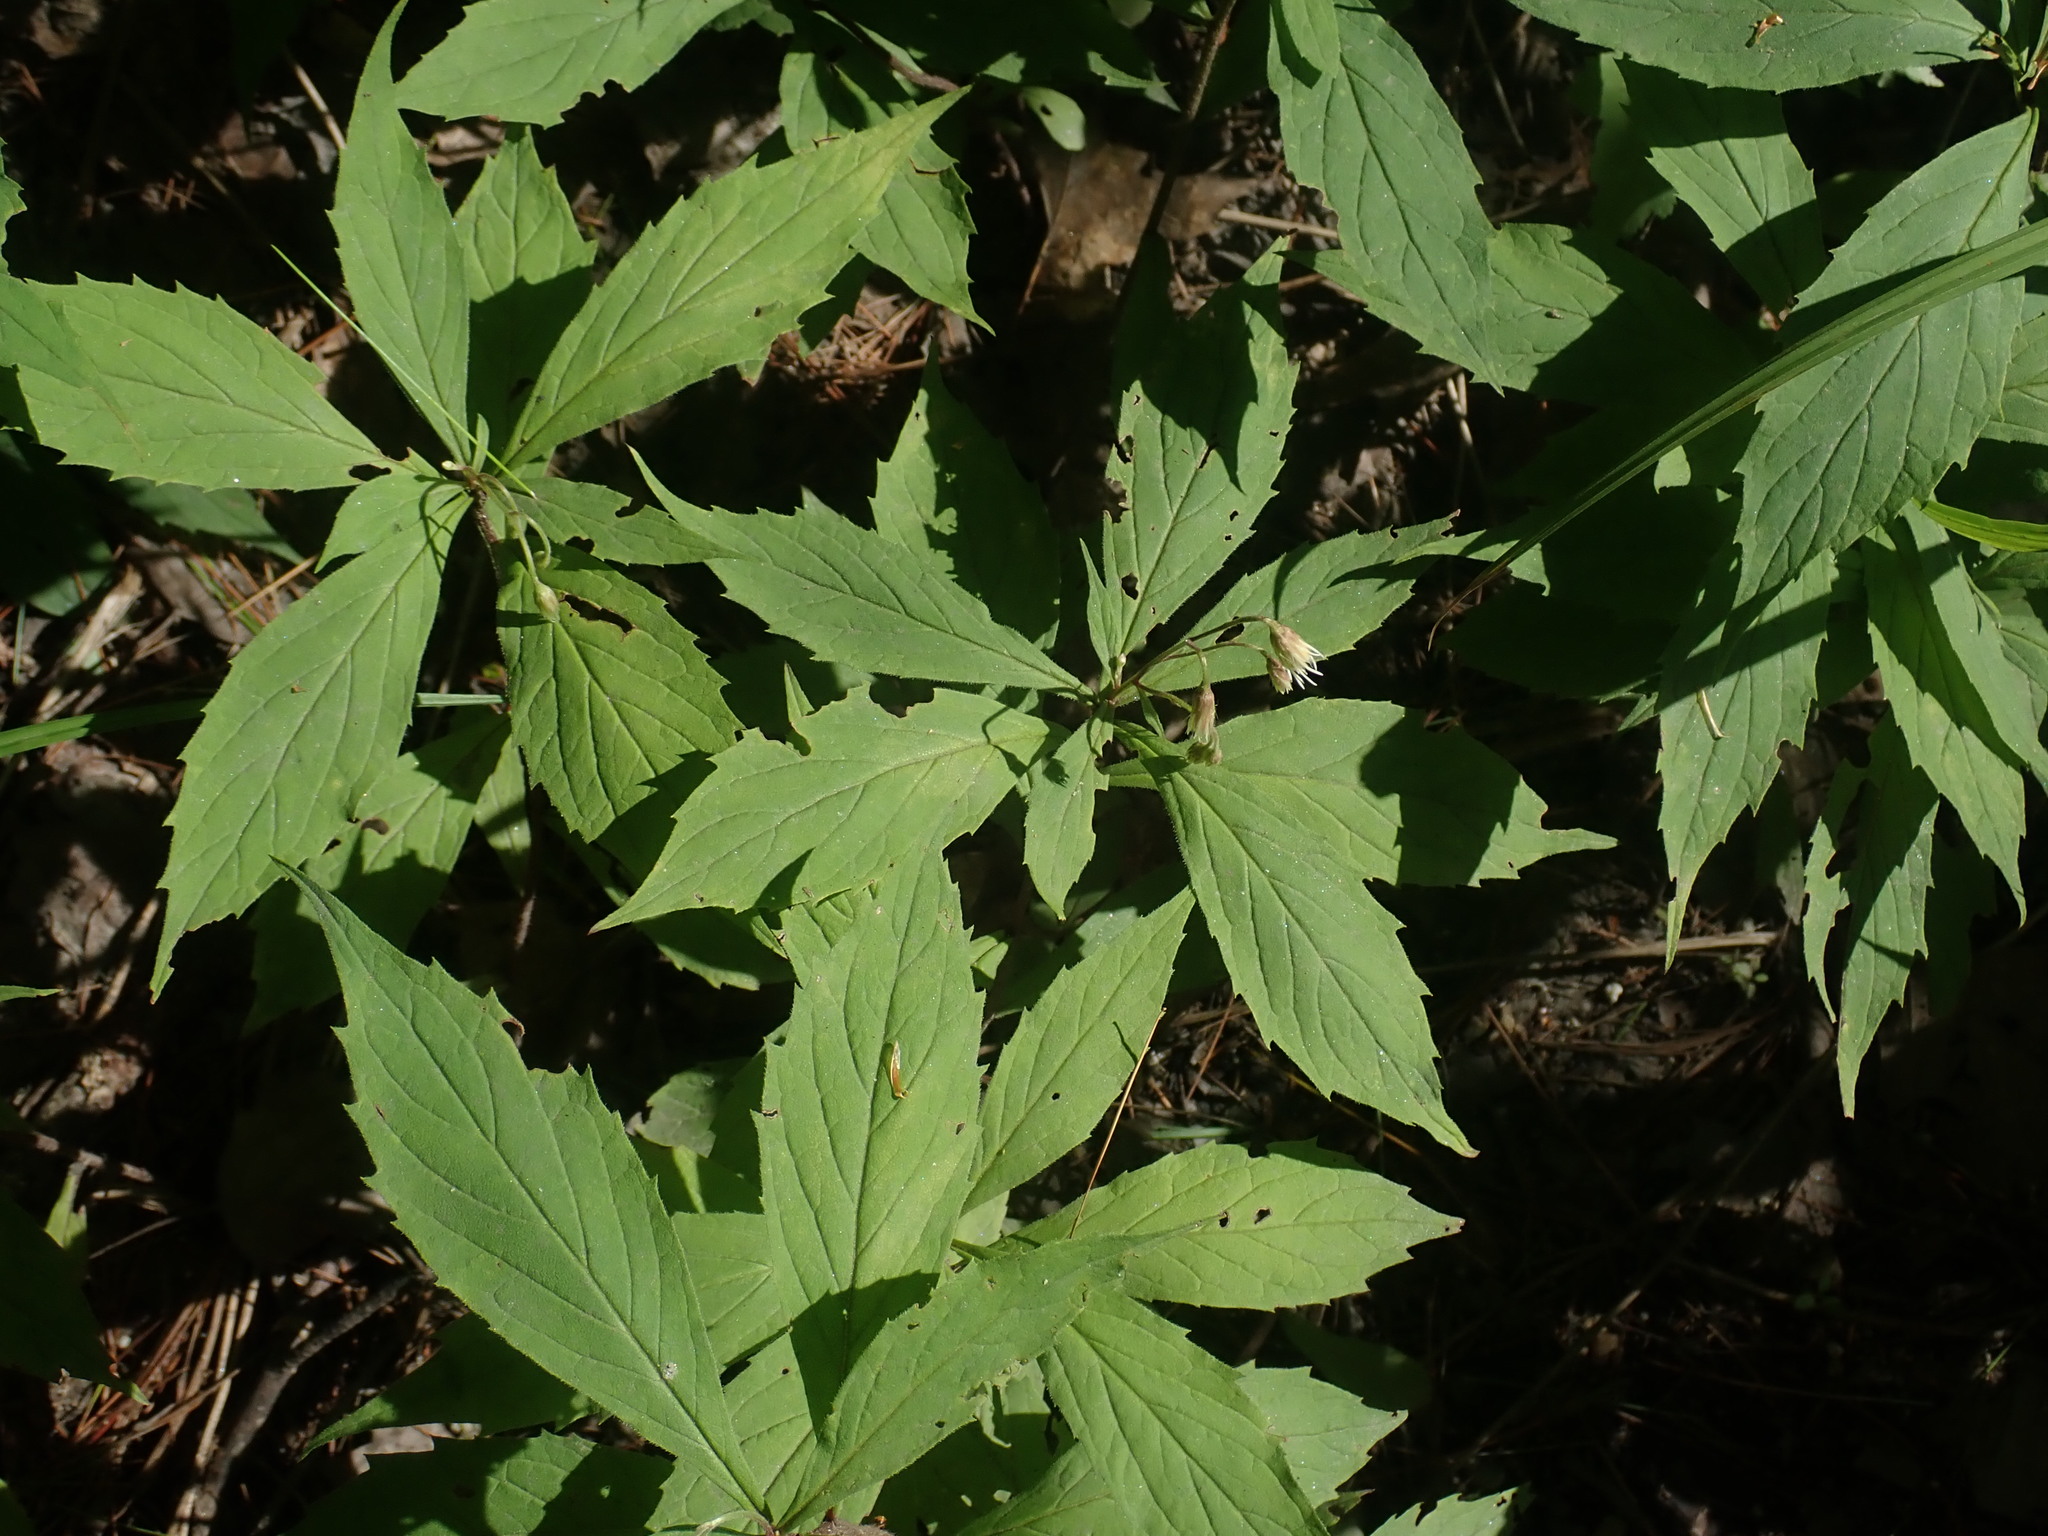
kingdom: Plantae
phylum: Tracheophyta
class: Magnoliopsida
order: Asterales
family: Asteraceae
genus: Oclemena
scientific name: Oclemena acuminata
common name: Mountain aster
